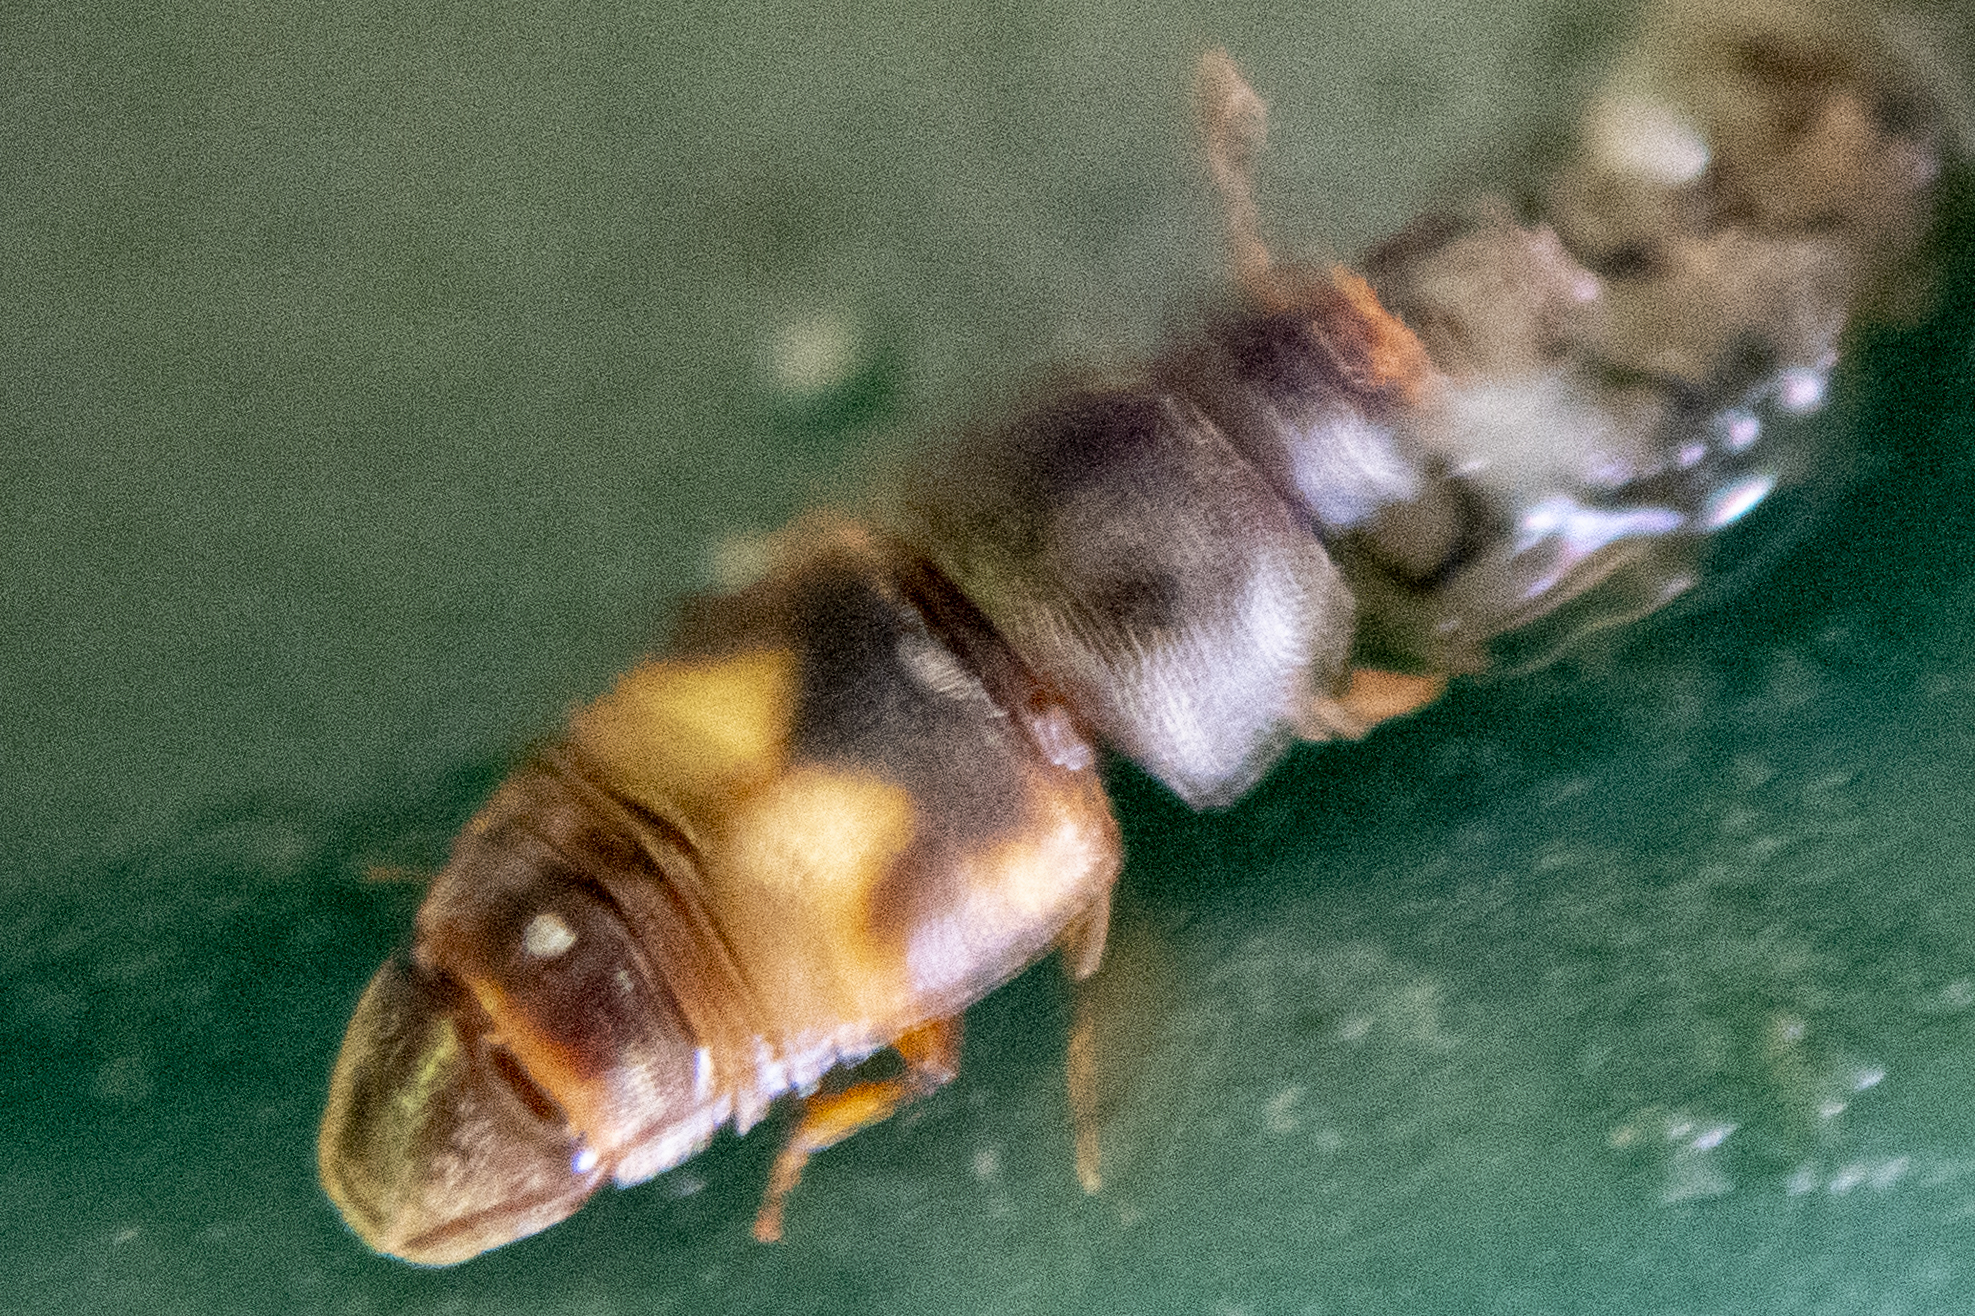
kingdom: Animalia
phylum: Arthropoda
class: Insecta
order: Coleoptera
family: Nitidulidae
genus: Carpophilus
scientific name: Carpophilus hemipterus
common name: Dried fruit beetle
